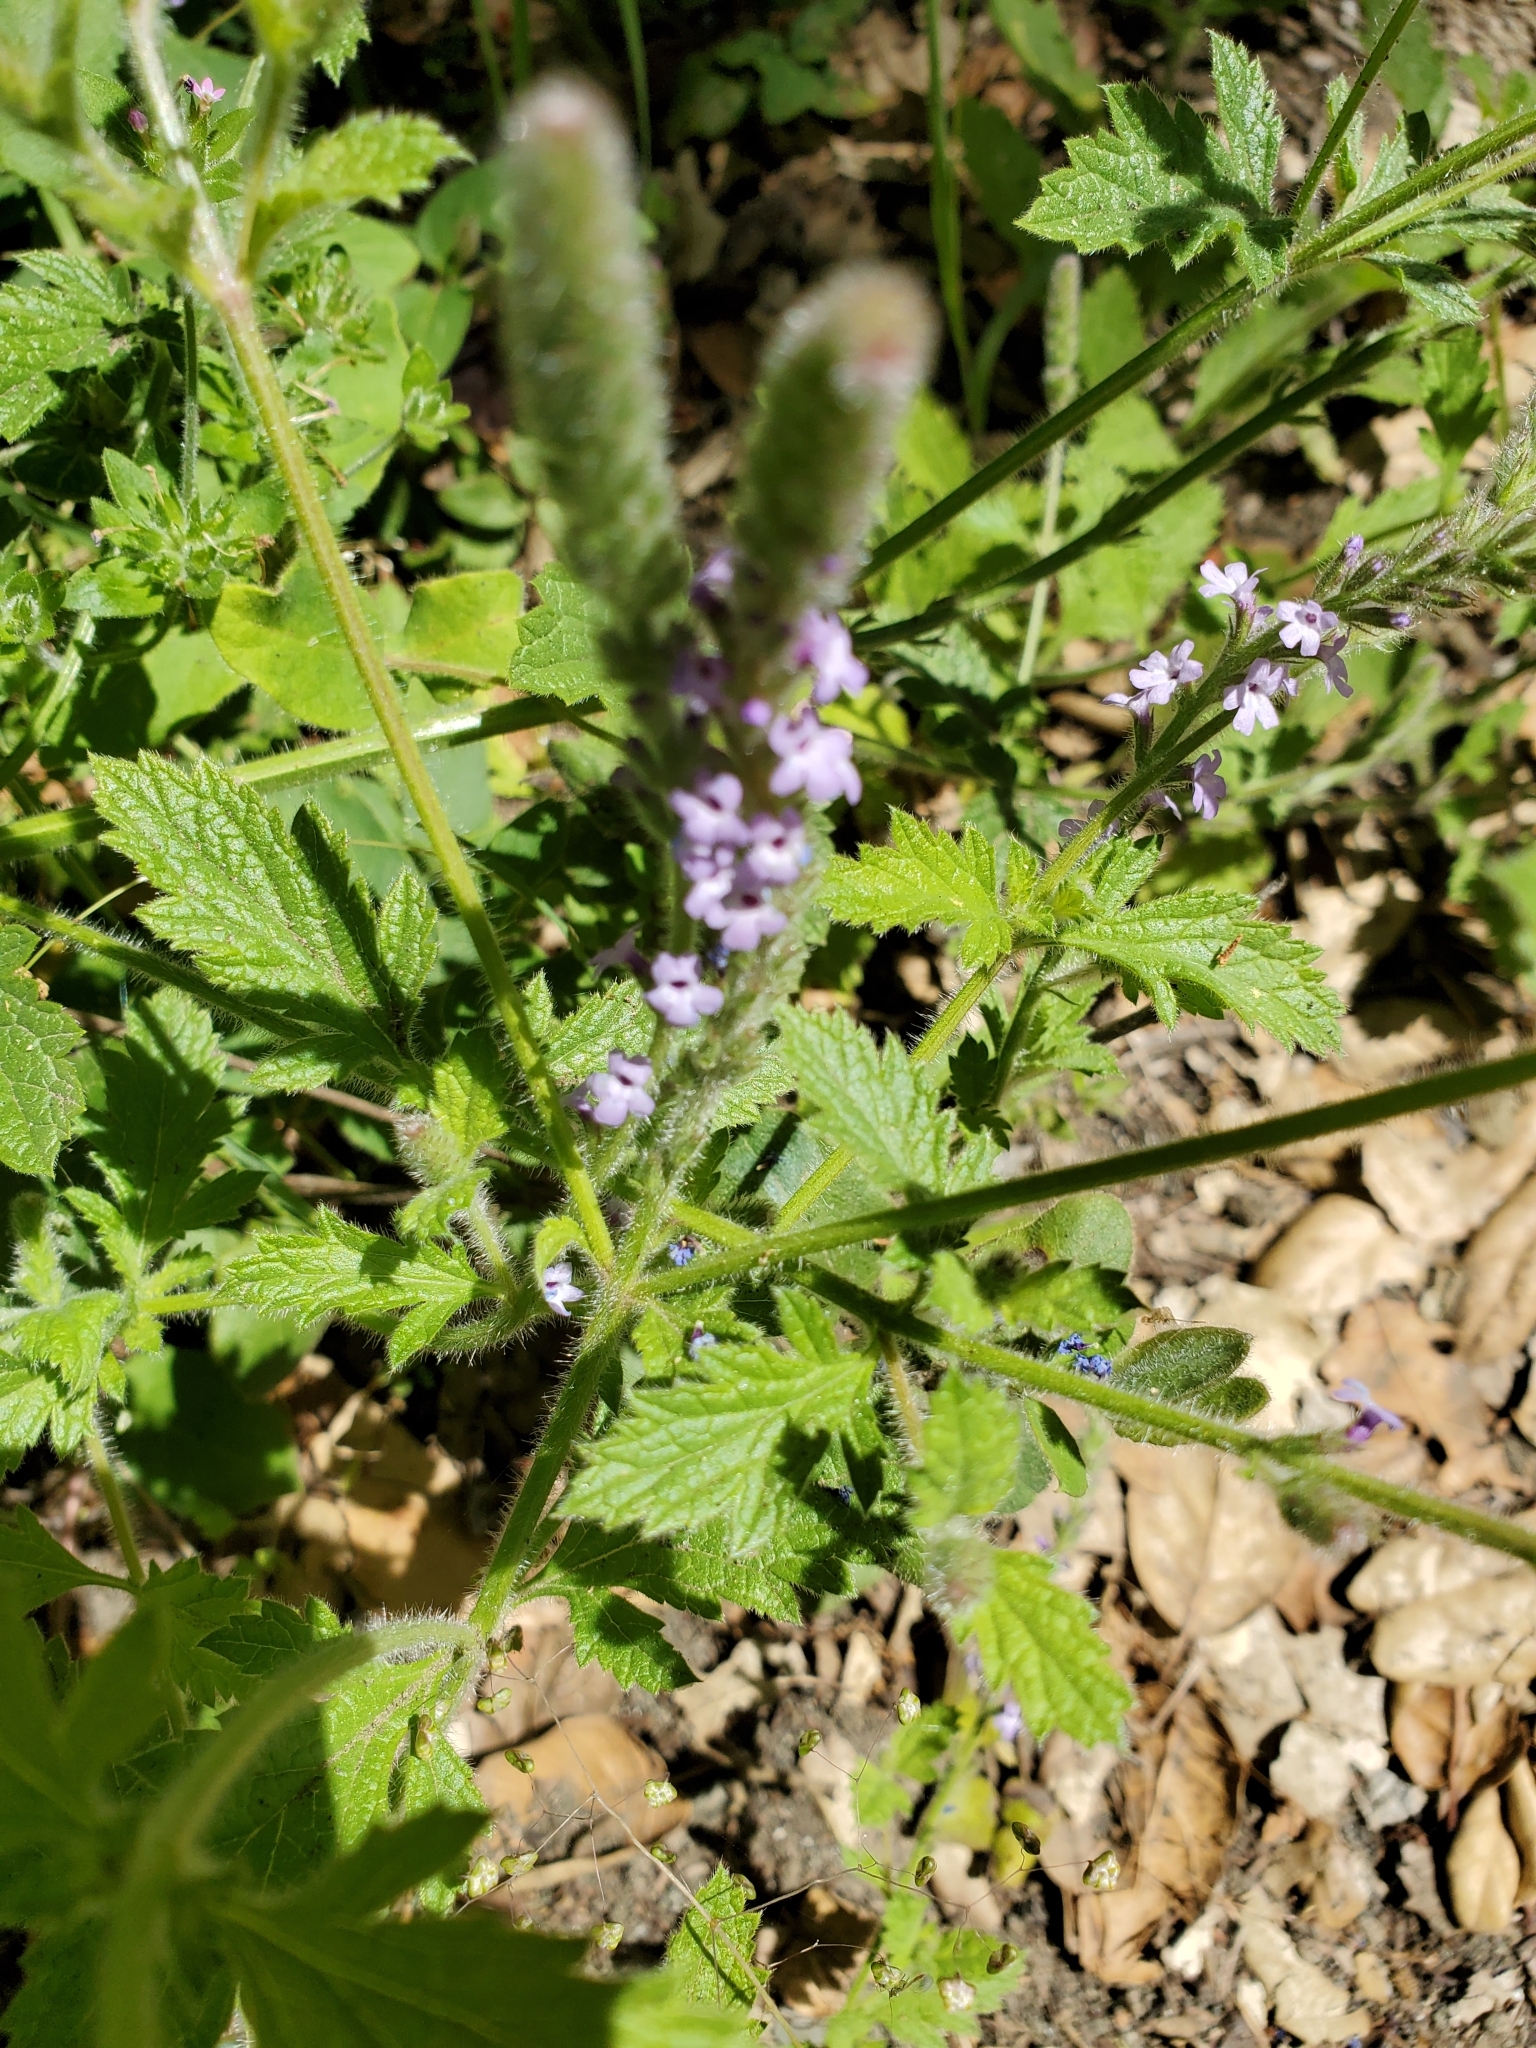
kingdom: Plantae
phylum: Tracheophyta
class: Magnoliopsida
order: Lamiales
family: Verbenaceae
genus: Verbena
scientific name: Verbena lasiostachys
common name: Vervain
